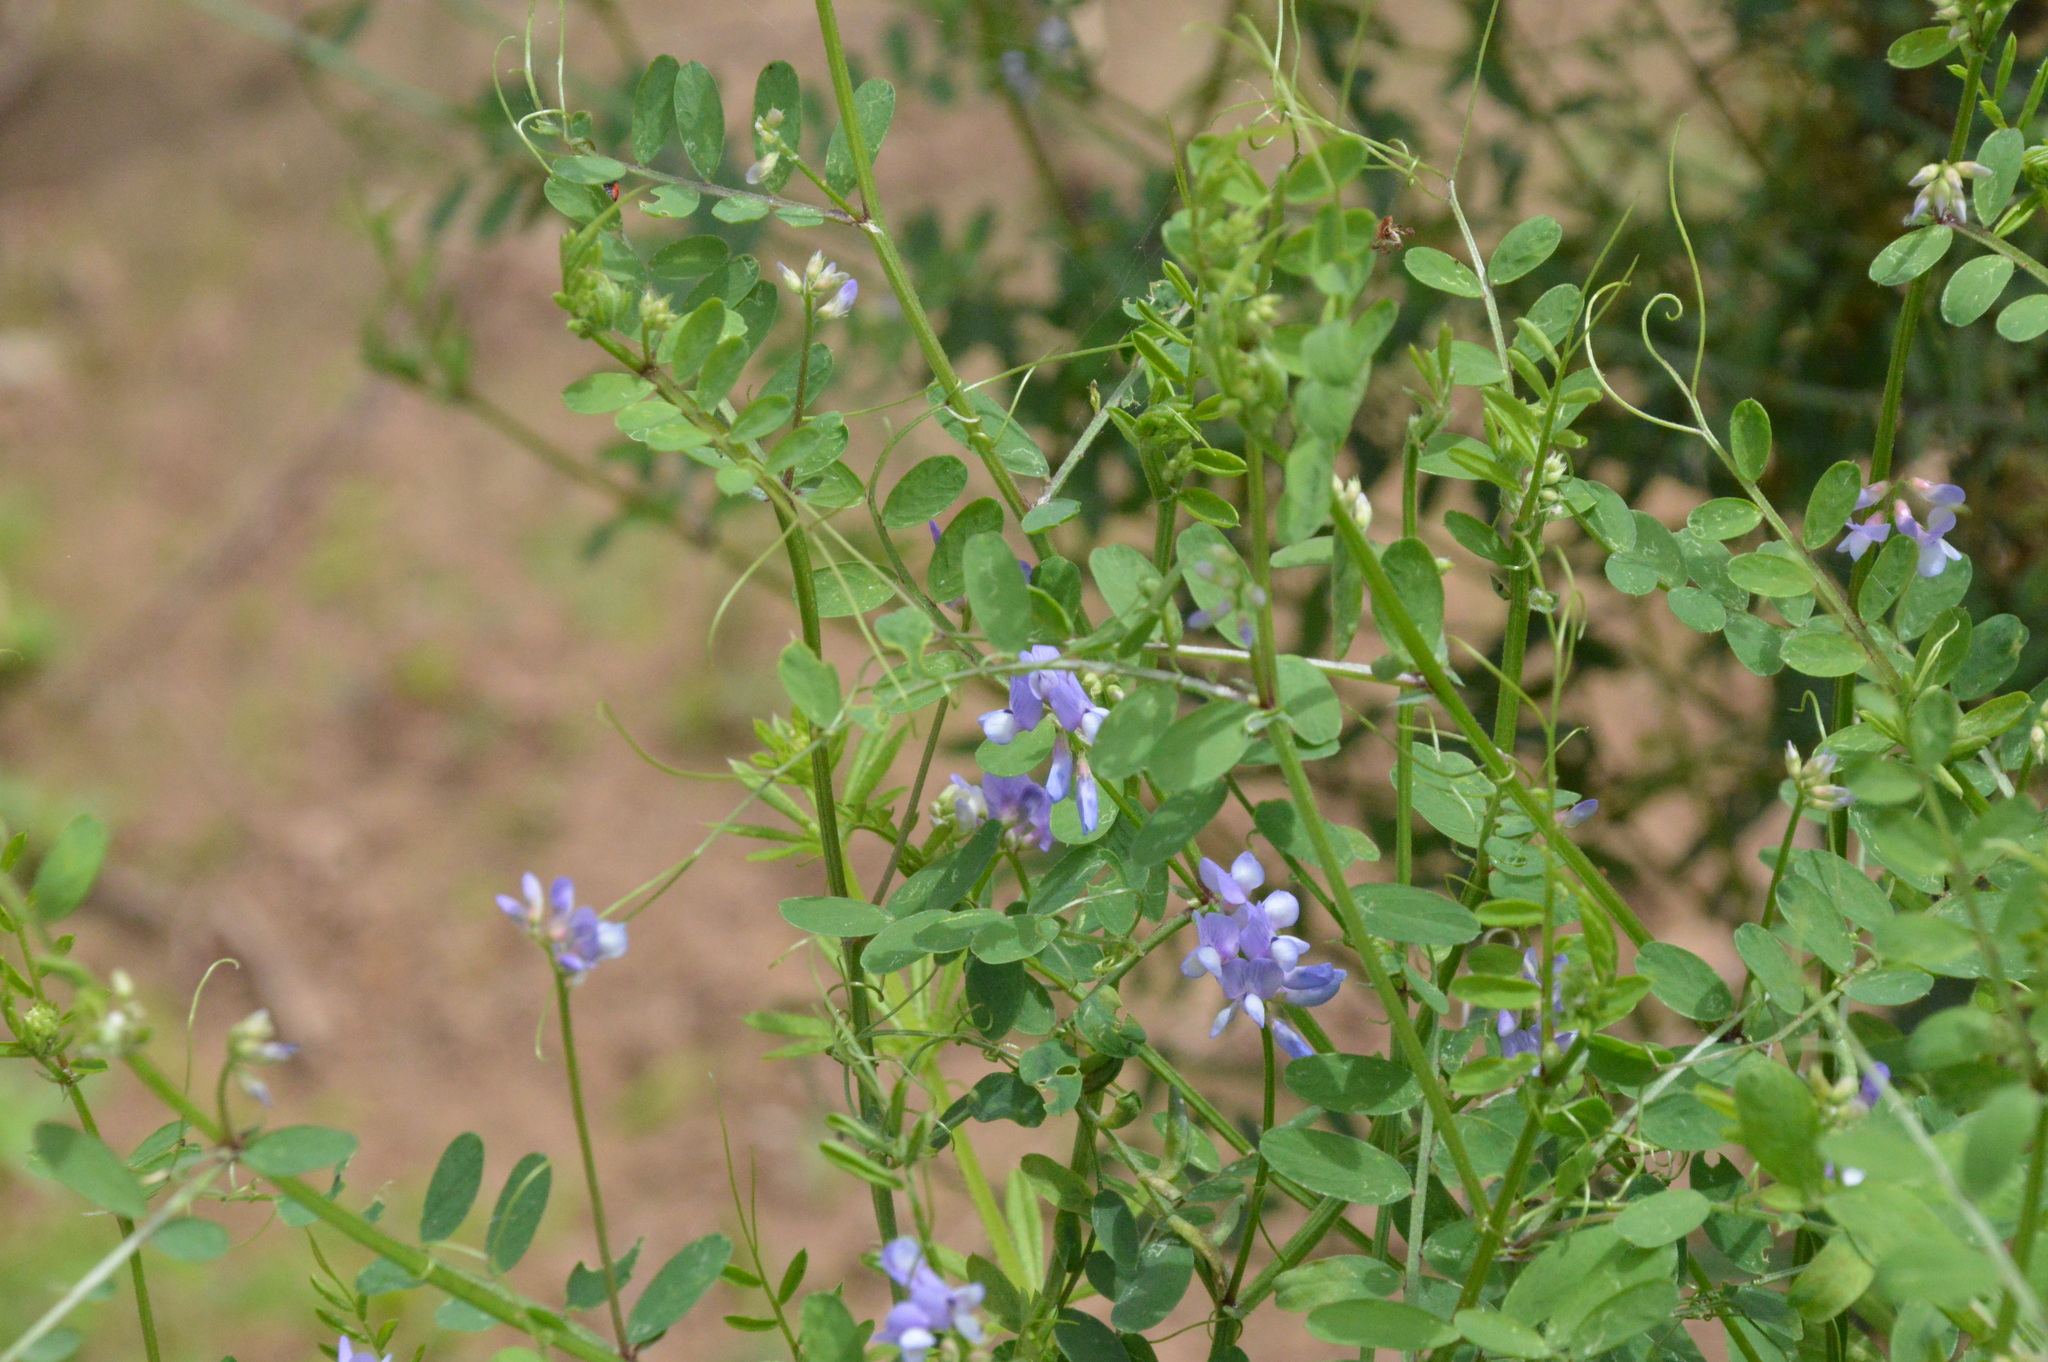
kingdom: Plantae
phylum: Tracheophyta
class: Magnoliopsida
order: Fabales
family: Fabaceae
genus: Vicia
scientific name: Vicia ludoviciana
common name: Louisiana vetch
